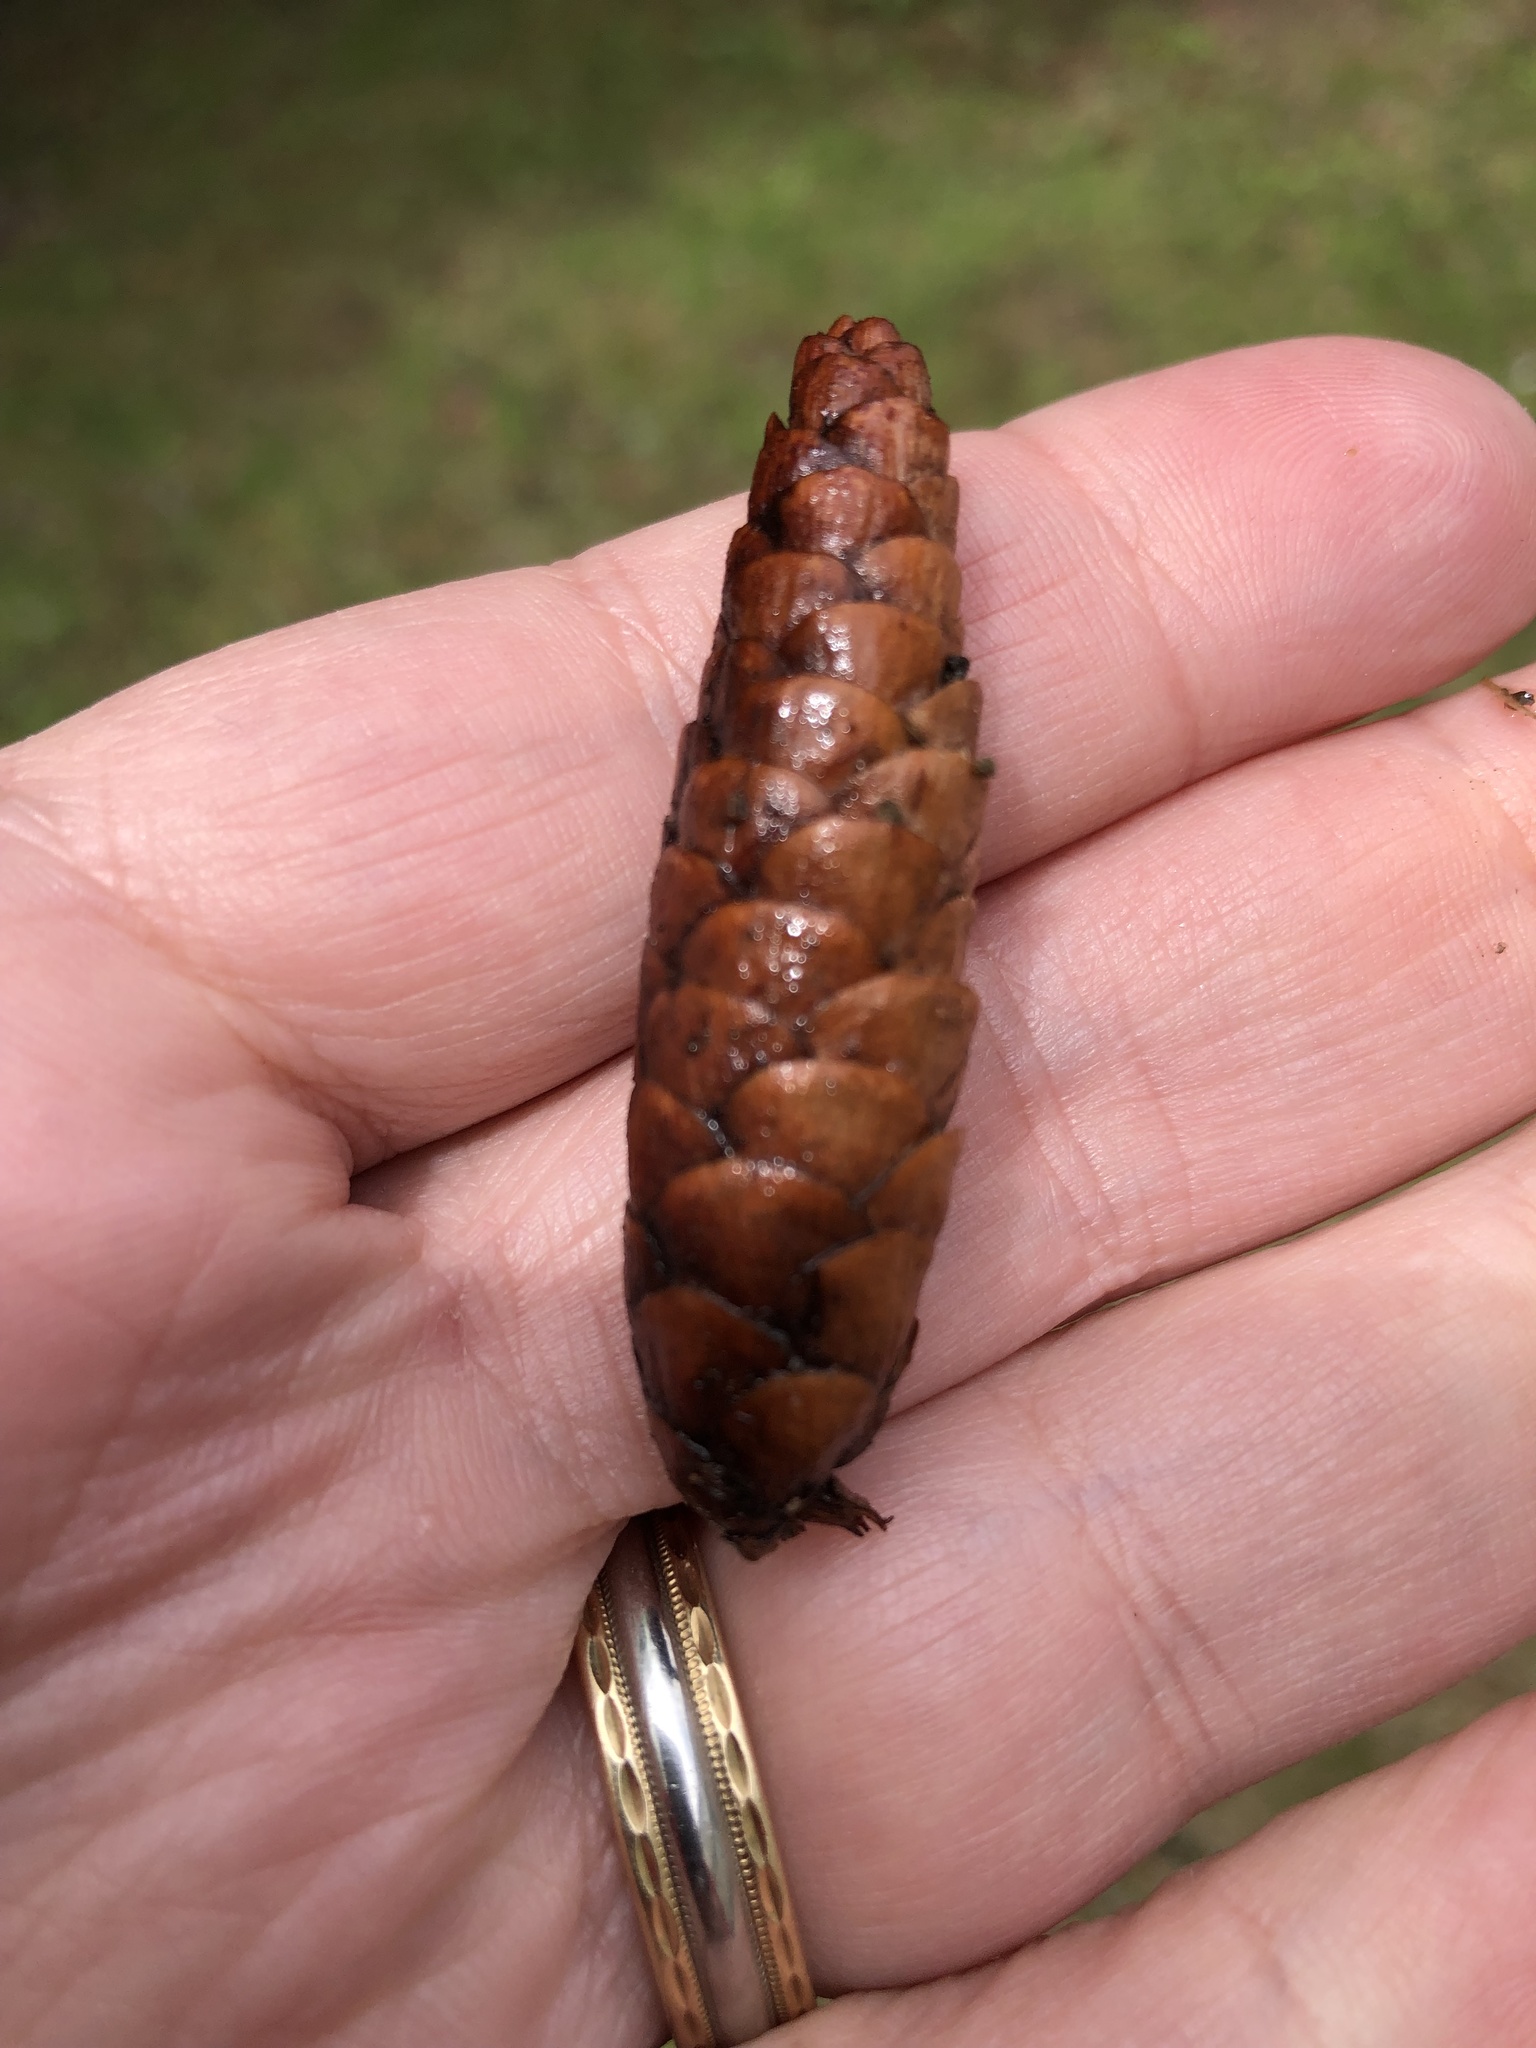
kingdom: Plantae
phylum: Tracheophyta
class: Pinopsida
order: Pinales
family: Pinaceae
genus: Picea
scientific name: Picea glauca
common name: White spruce
